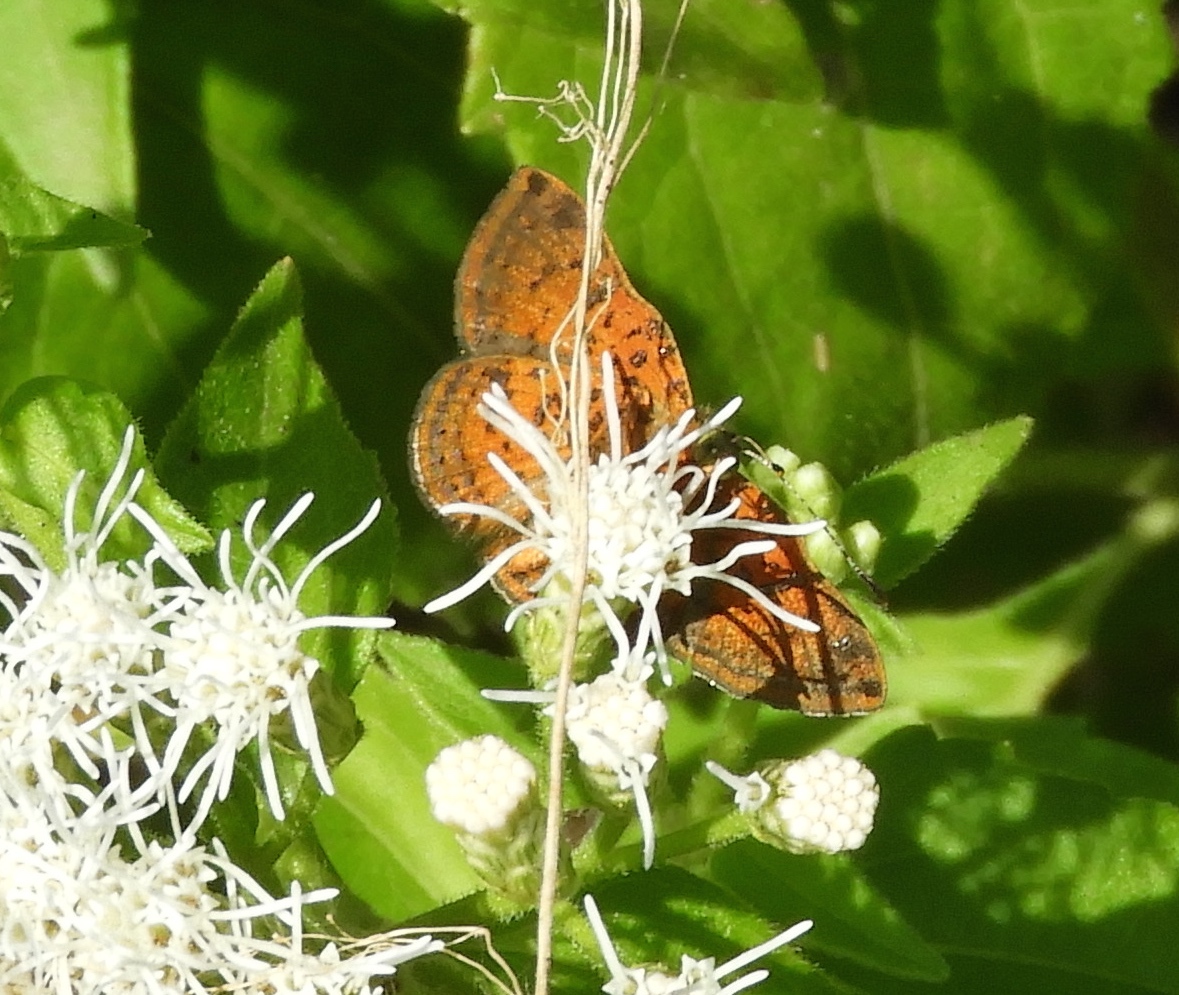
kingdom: Animalia
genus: Caria
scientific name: Caria ino
